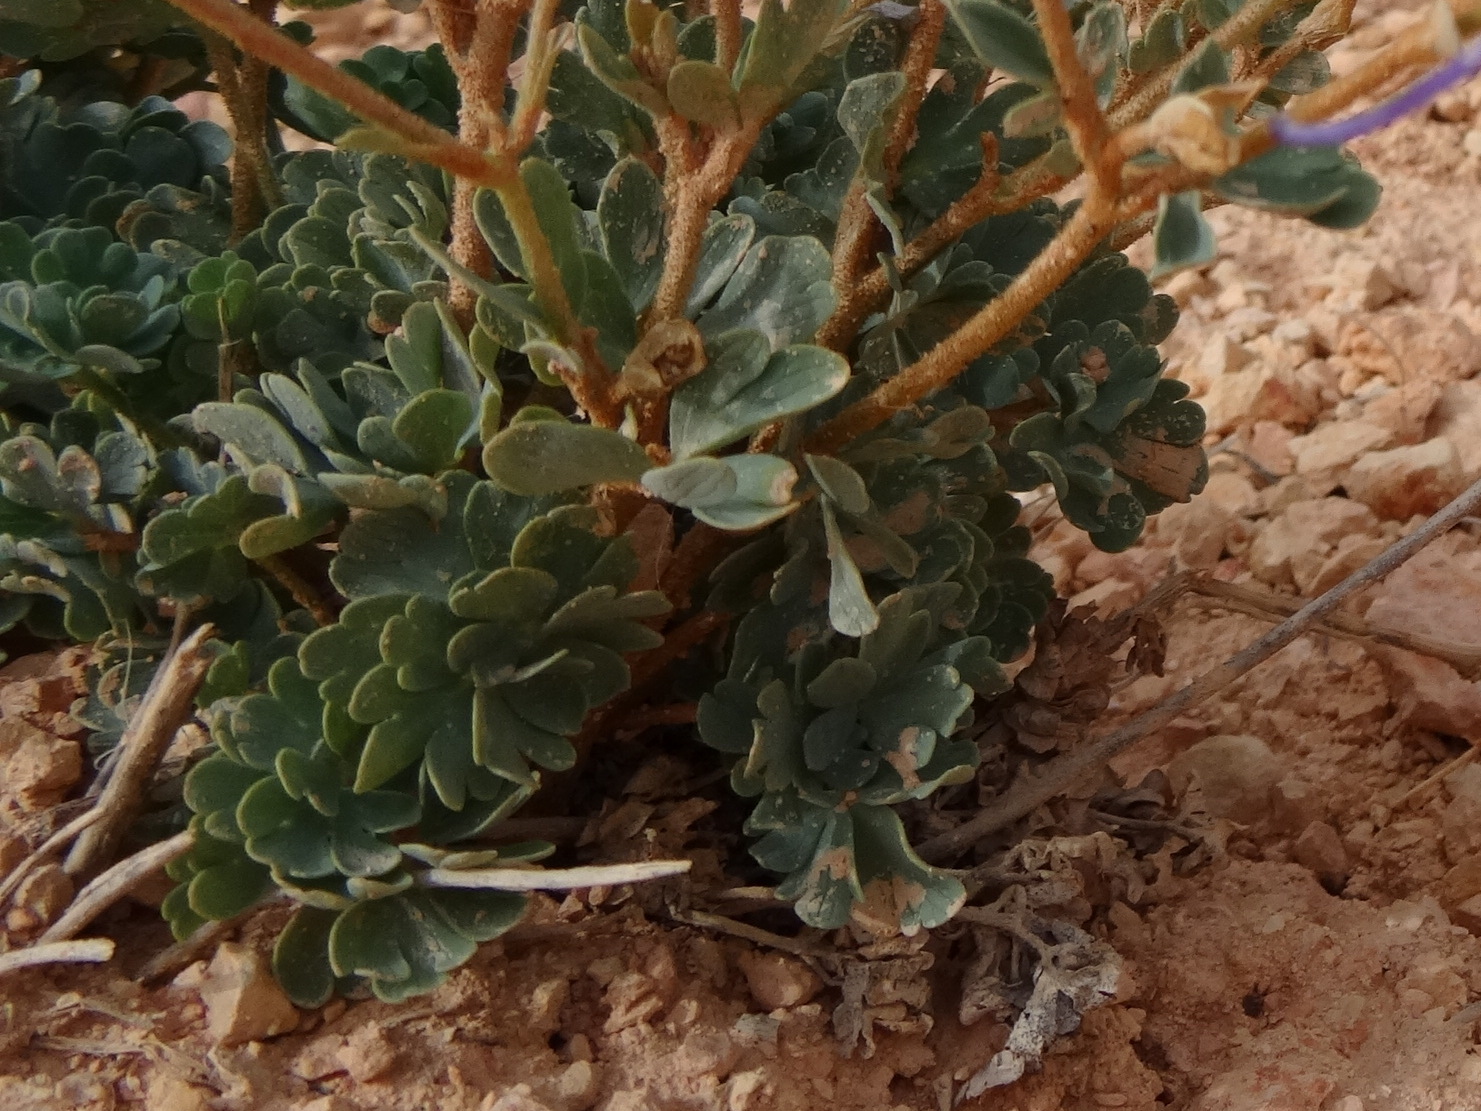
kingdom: Plantae
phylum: Tracheophyta
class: Magnoliopsida
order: Ranunculales
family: Ranunculaceae
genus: Aquilegia
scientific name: Aquilegia scopulorum
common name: Rock columbine
